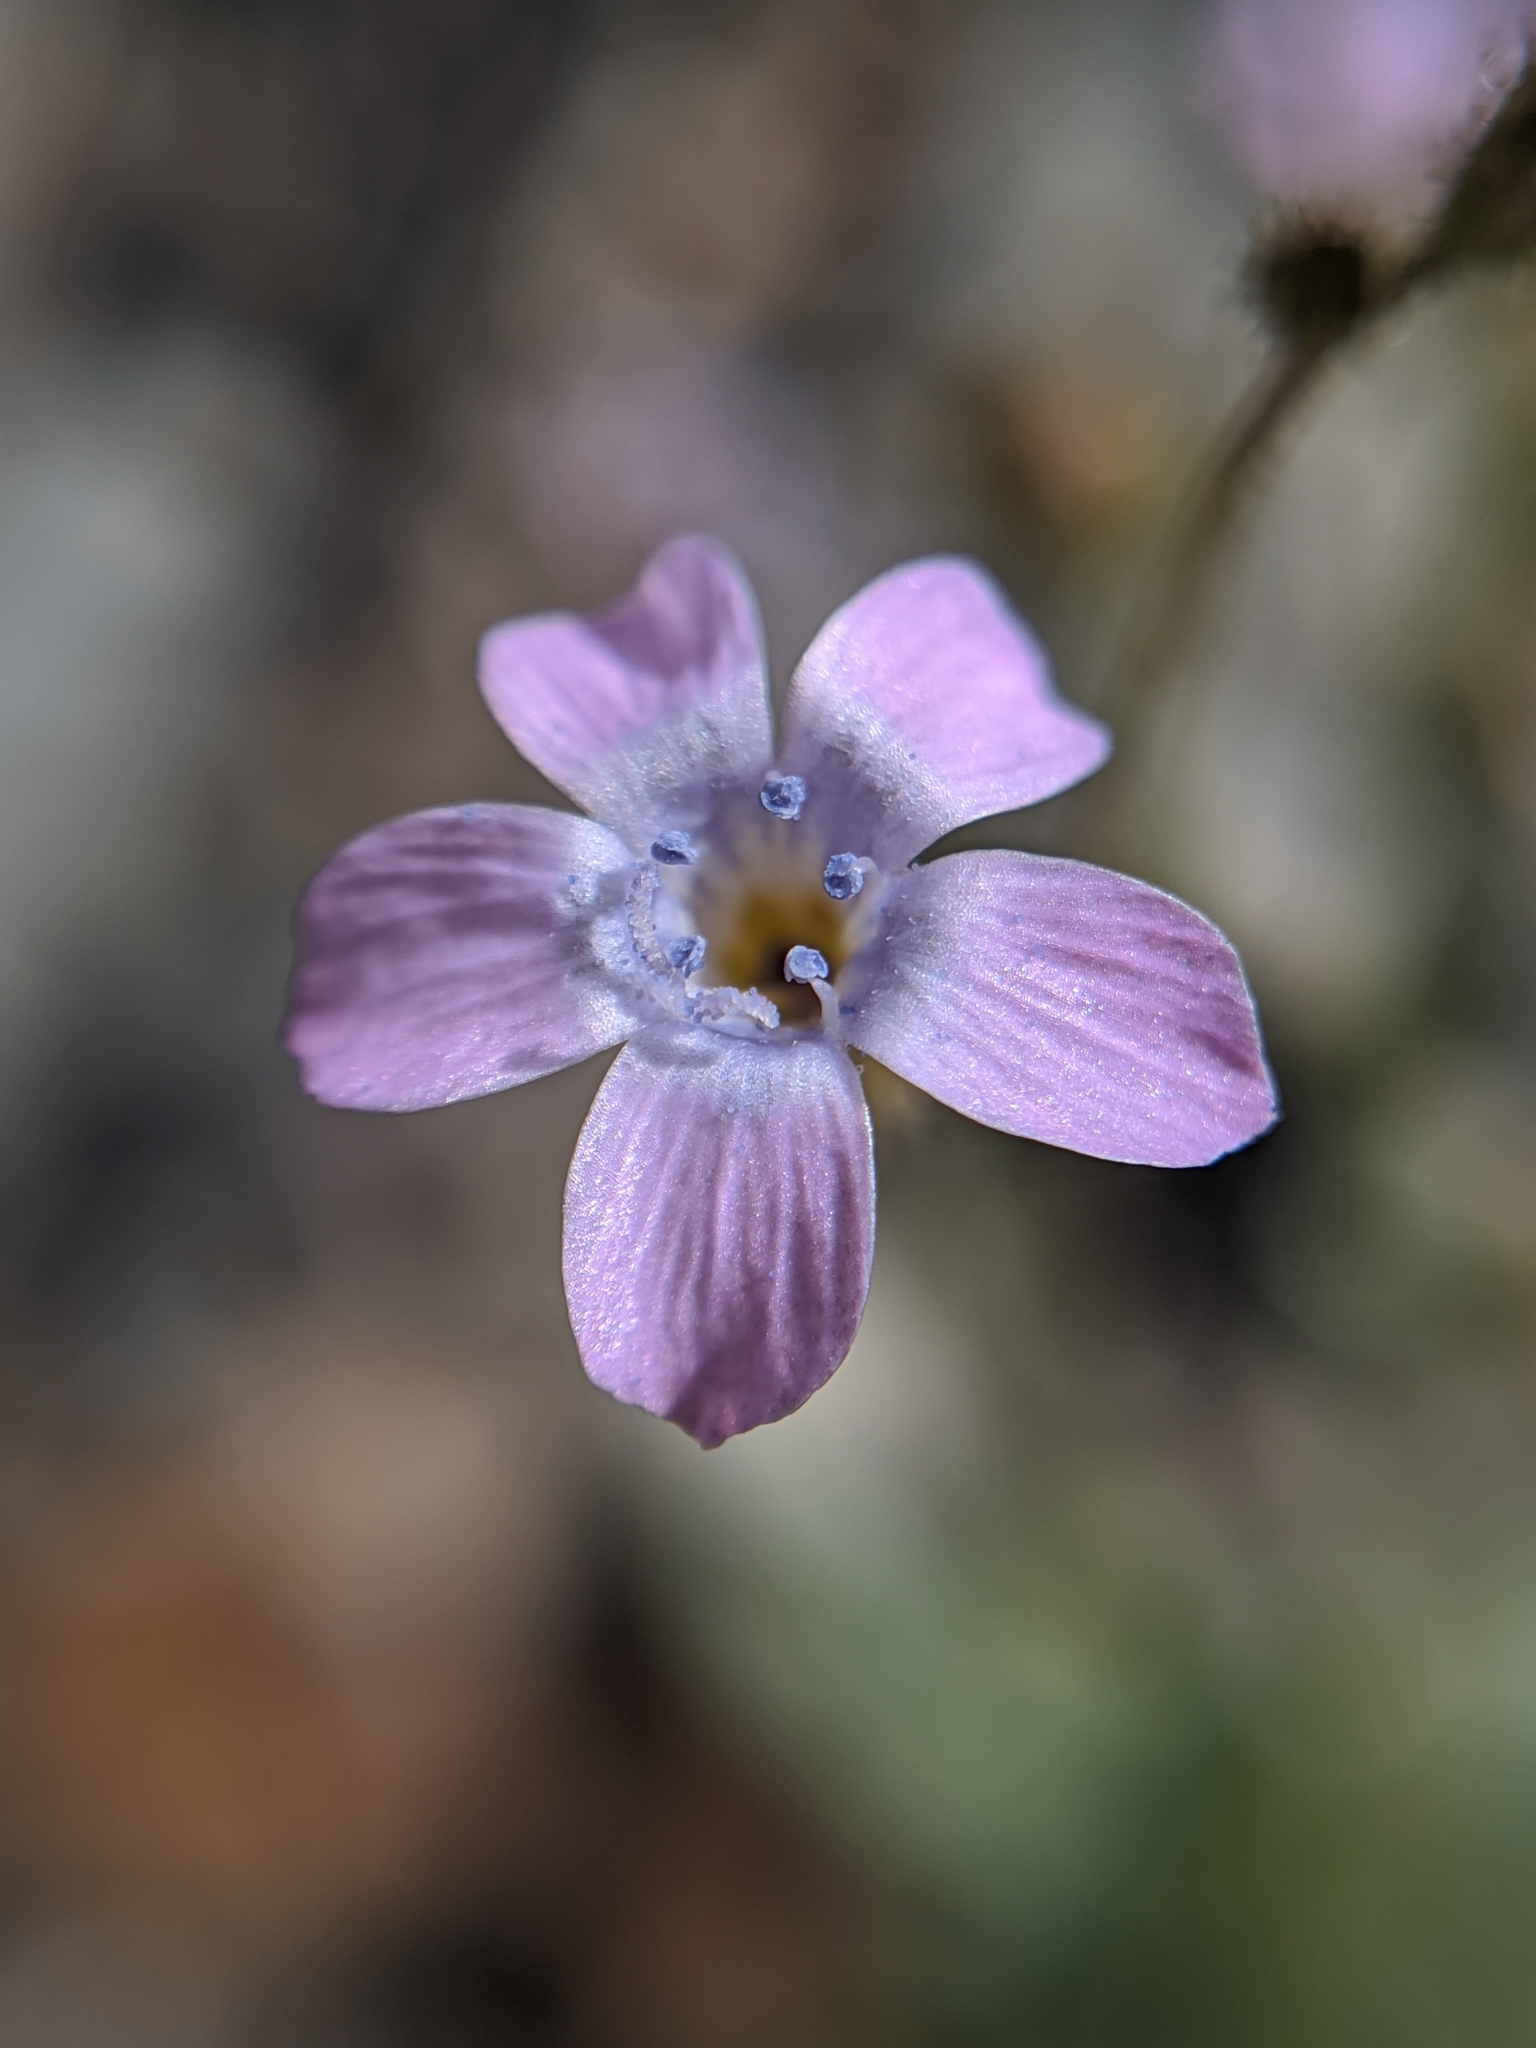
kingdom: Plantae
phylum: Tracheophyta
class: Magnoliopsida
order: Ericales
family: Polemoniaceae
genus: Gilia
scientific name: Gilia scopulorum
